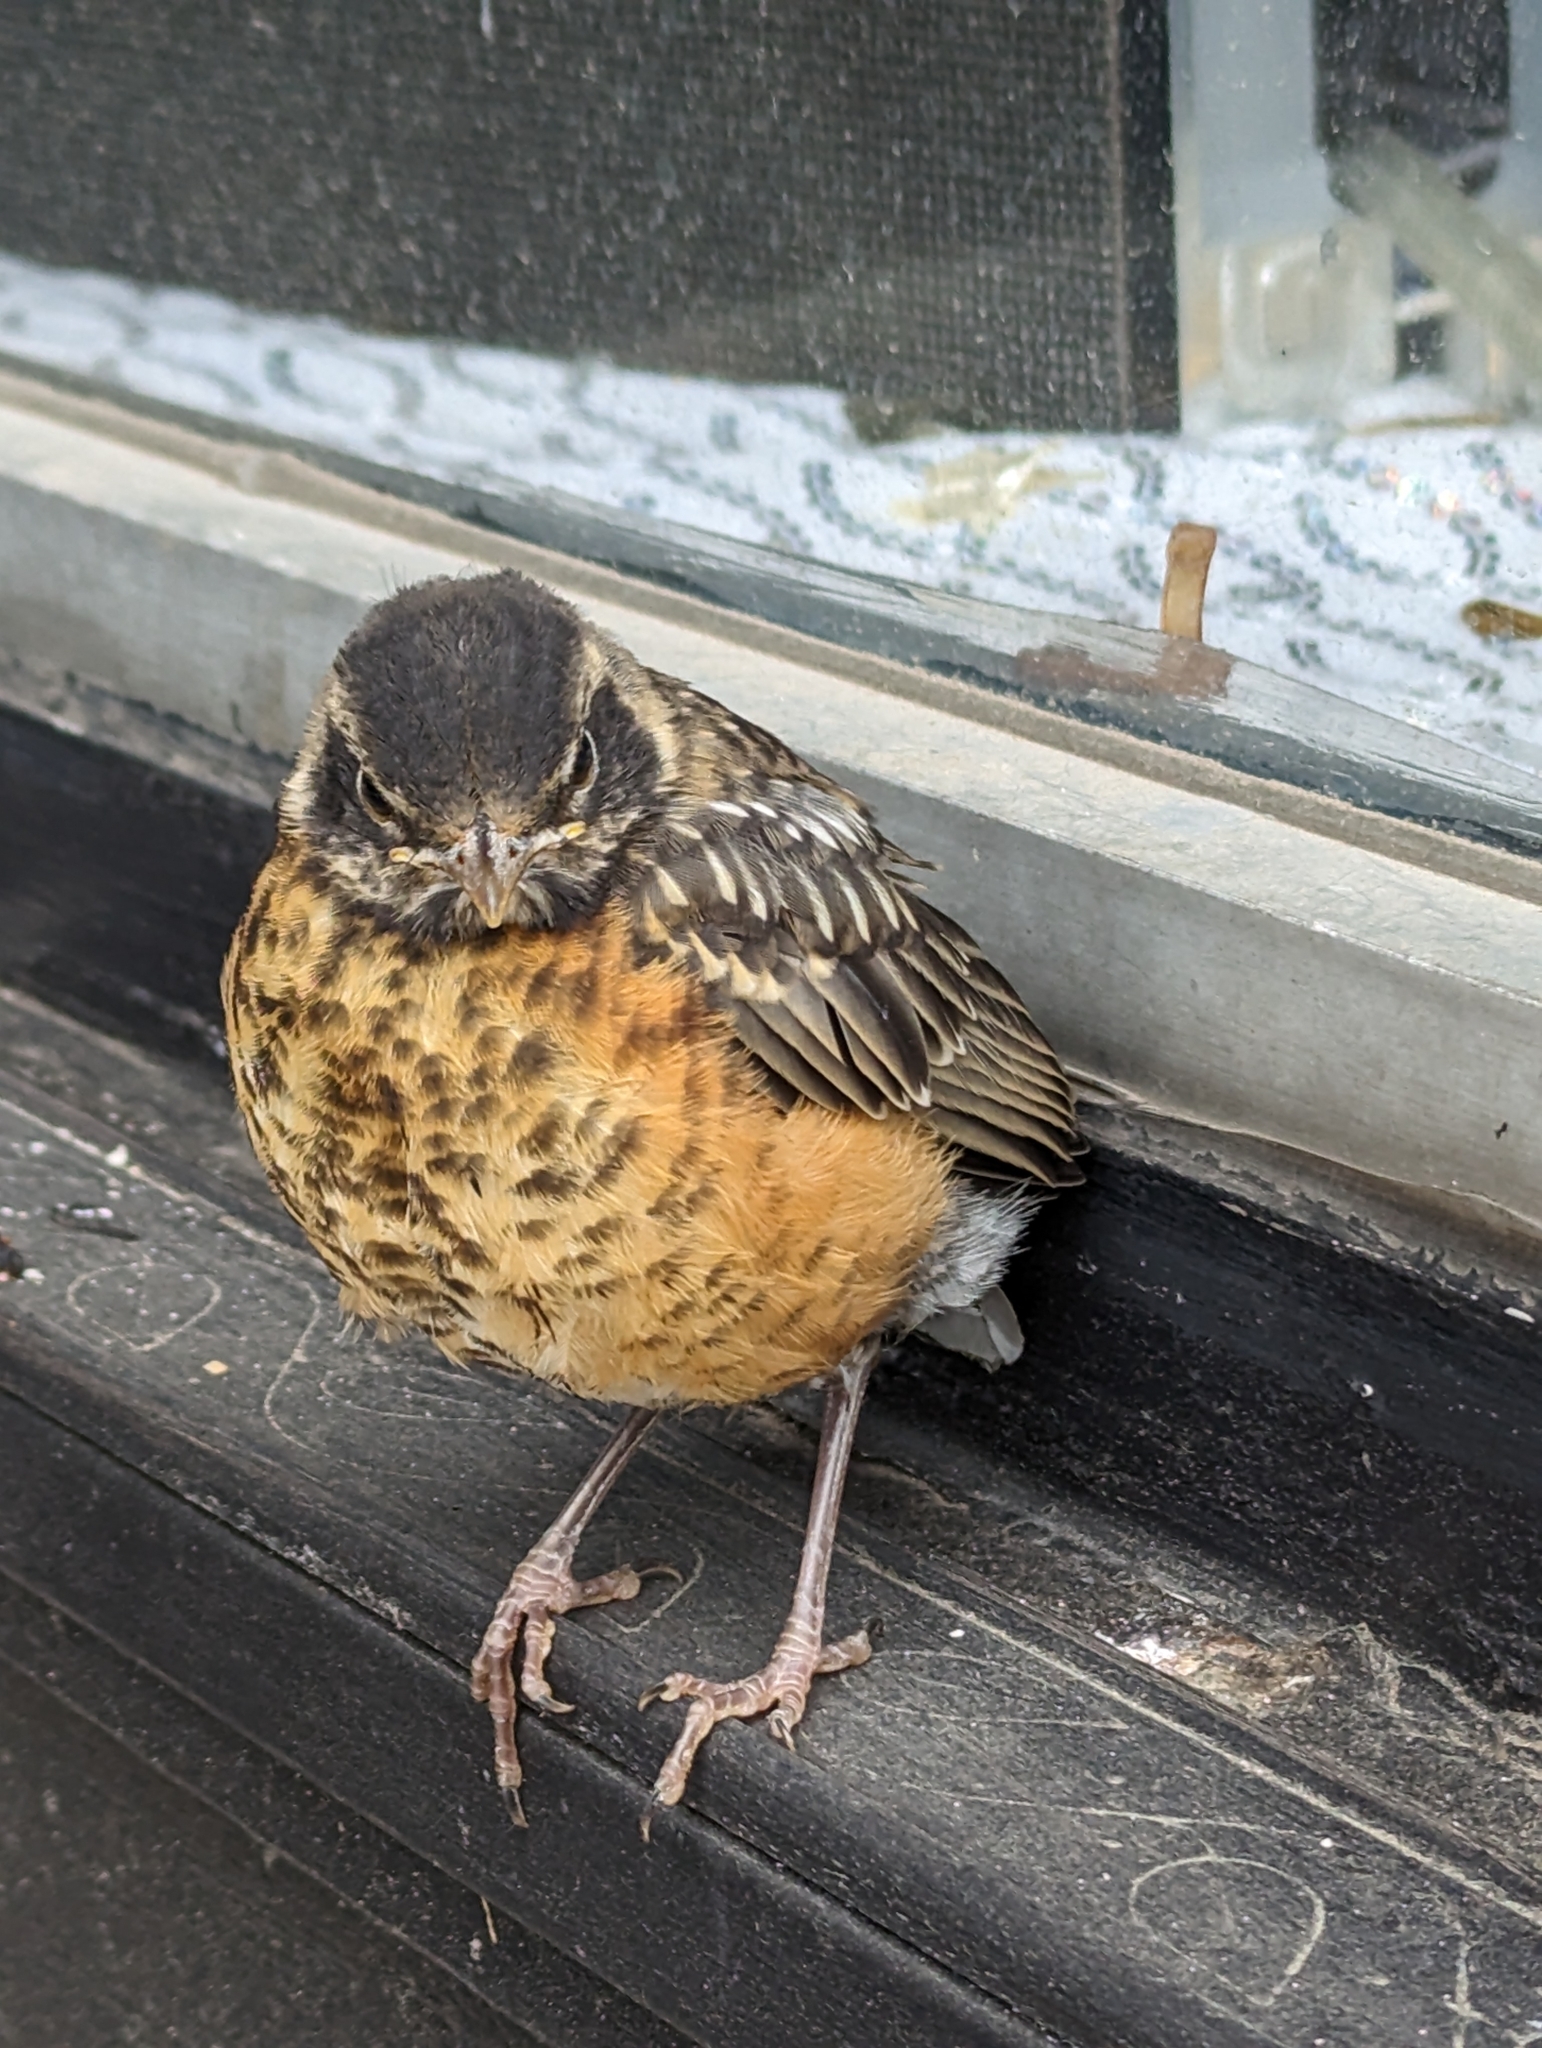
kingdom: Animalia
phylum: Chordata
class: Aves
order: Passeriformes
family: Turdidae
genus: Turdus
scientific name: Turdus migratorius
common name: American robin
